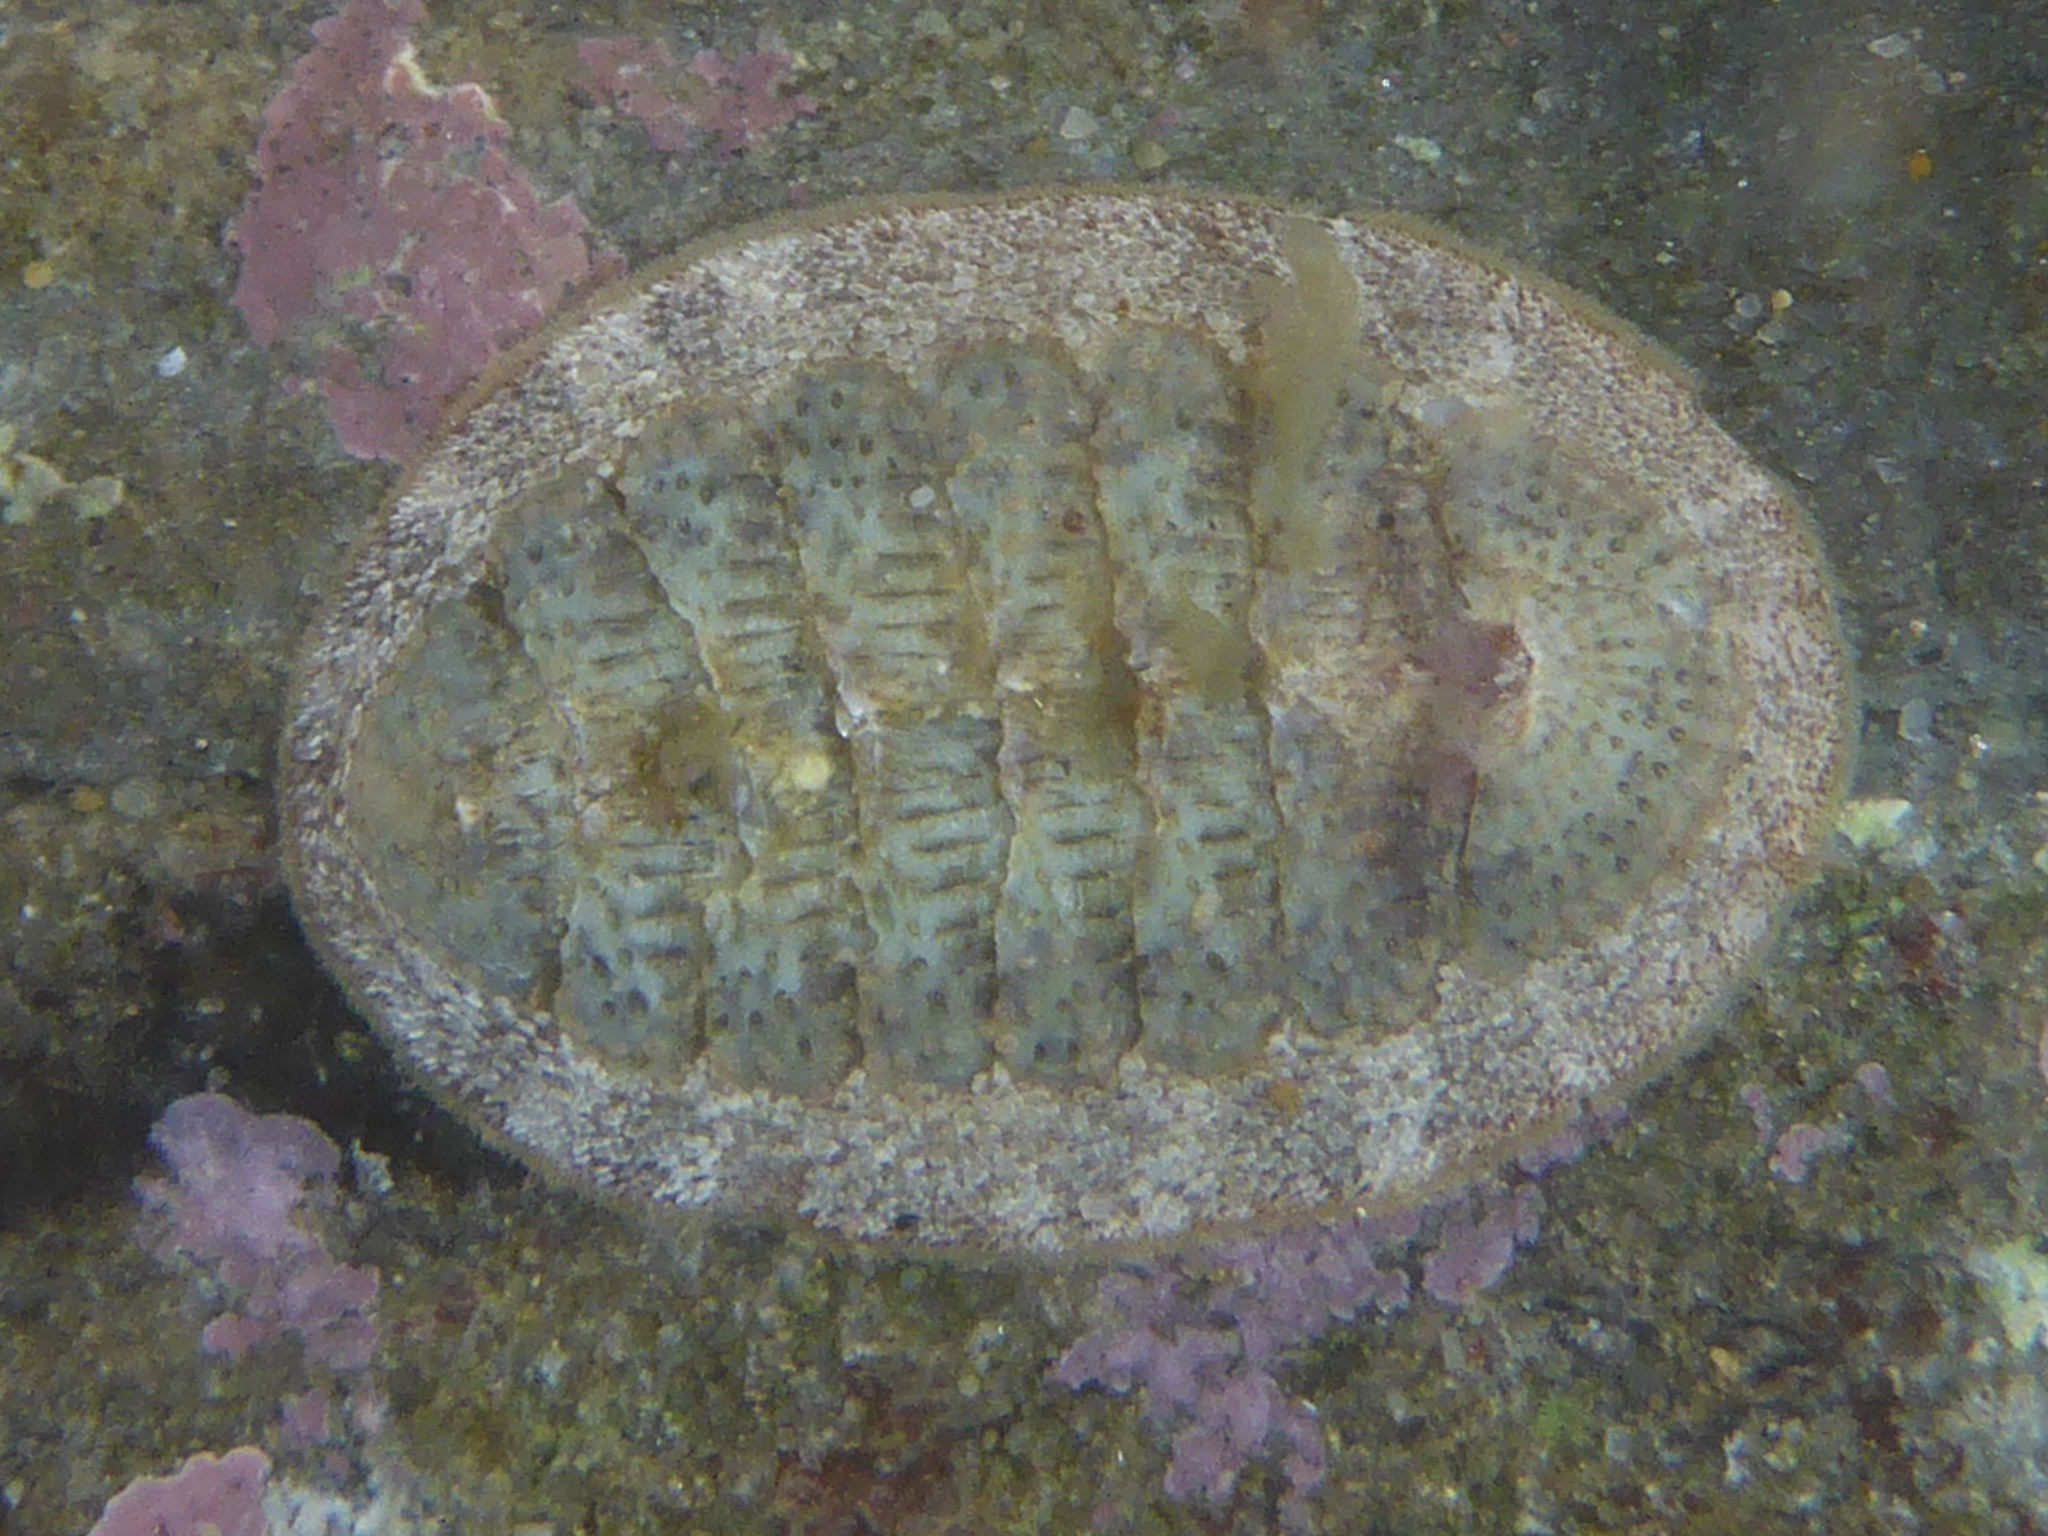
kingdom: Animalia
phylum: Mollusca
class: Polyplacophora
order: Chitonida
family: Ischnochitonidae
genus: Lepidozona
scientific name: Lepidozona cooperi
